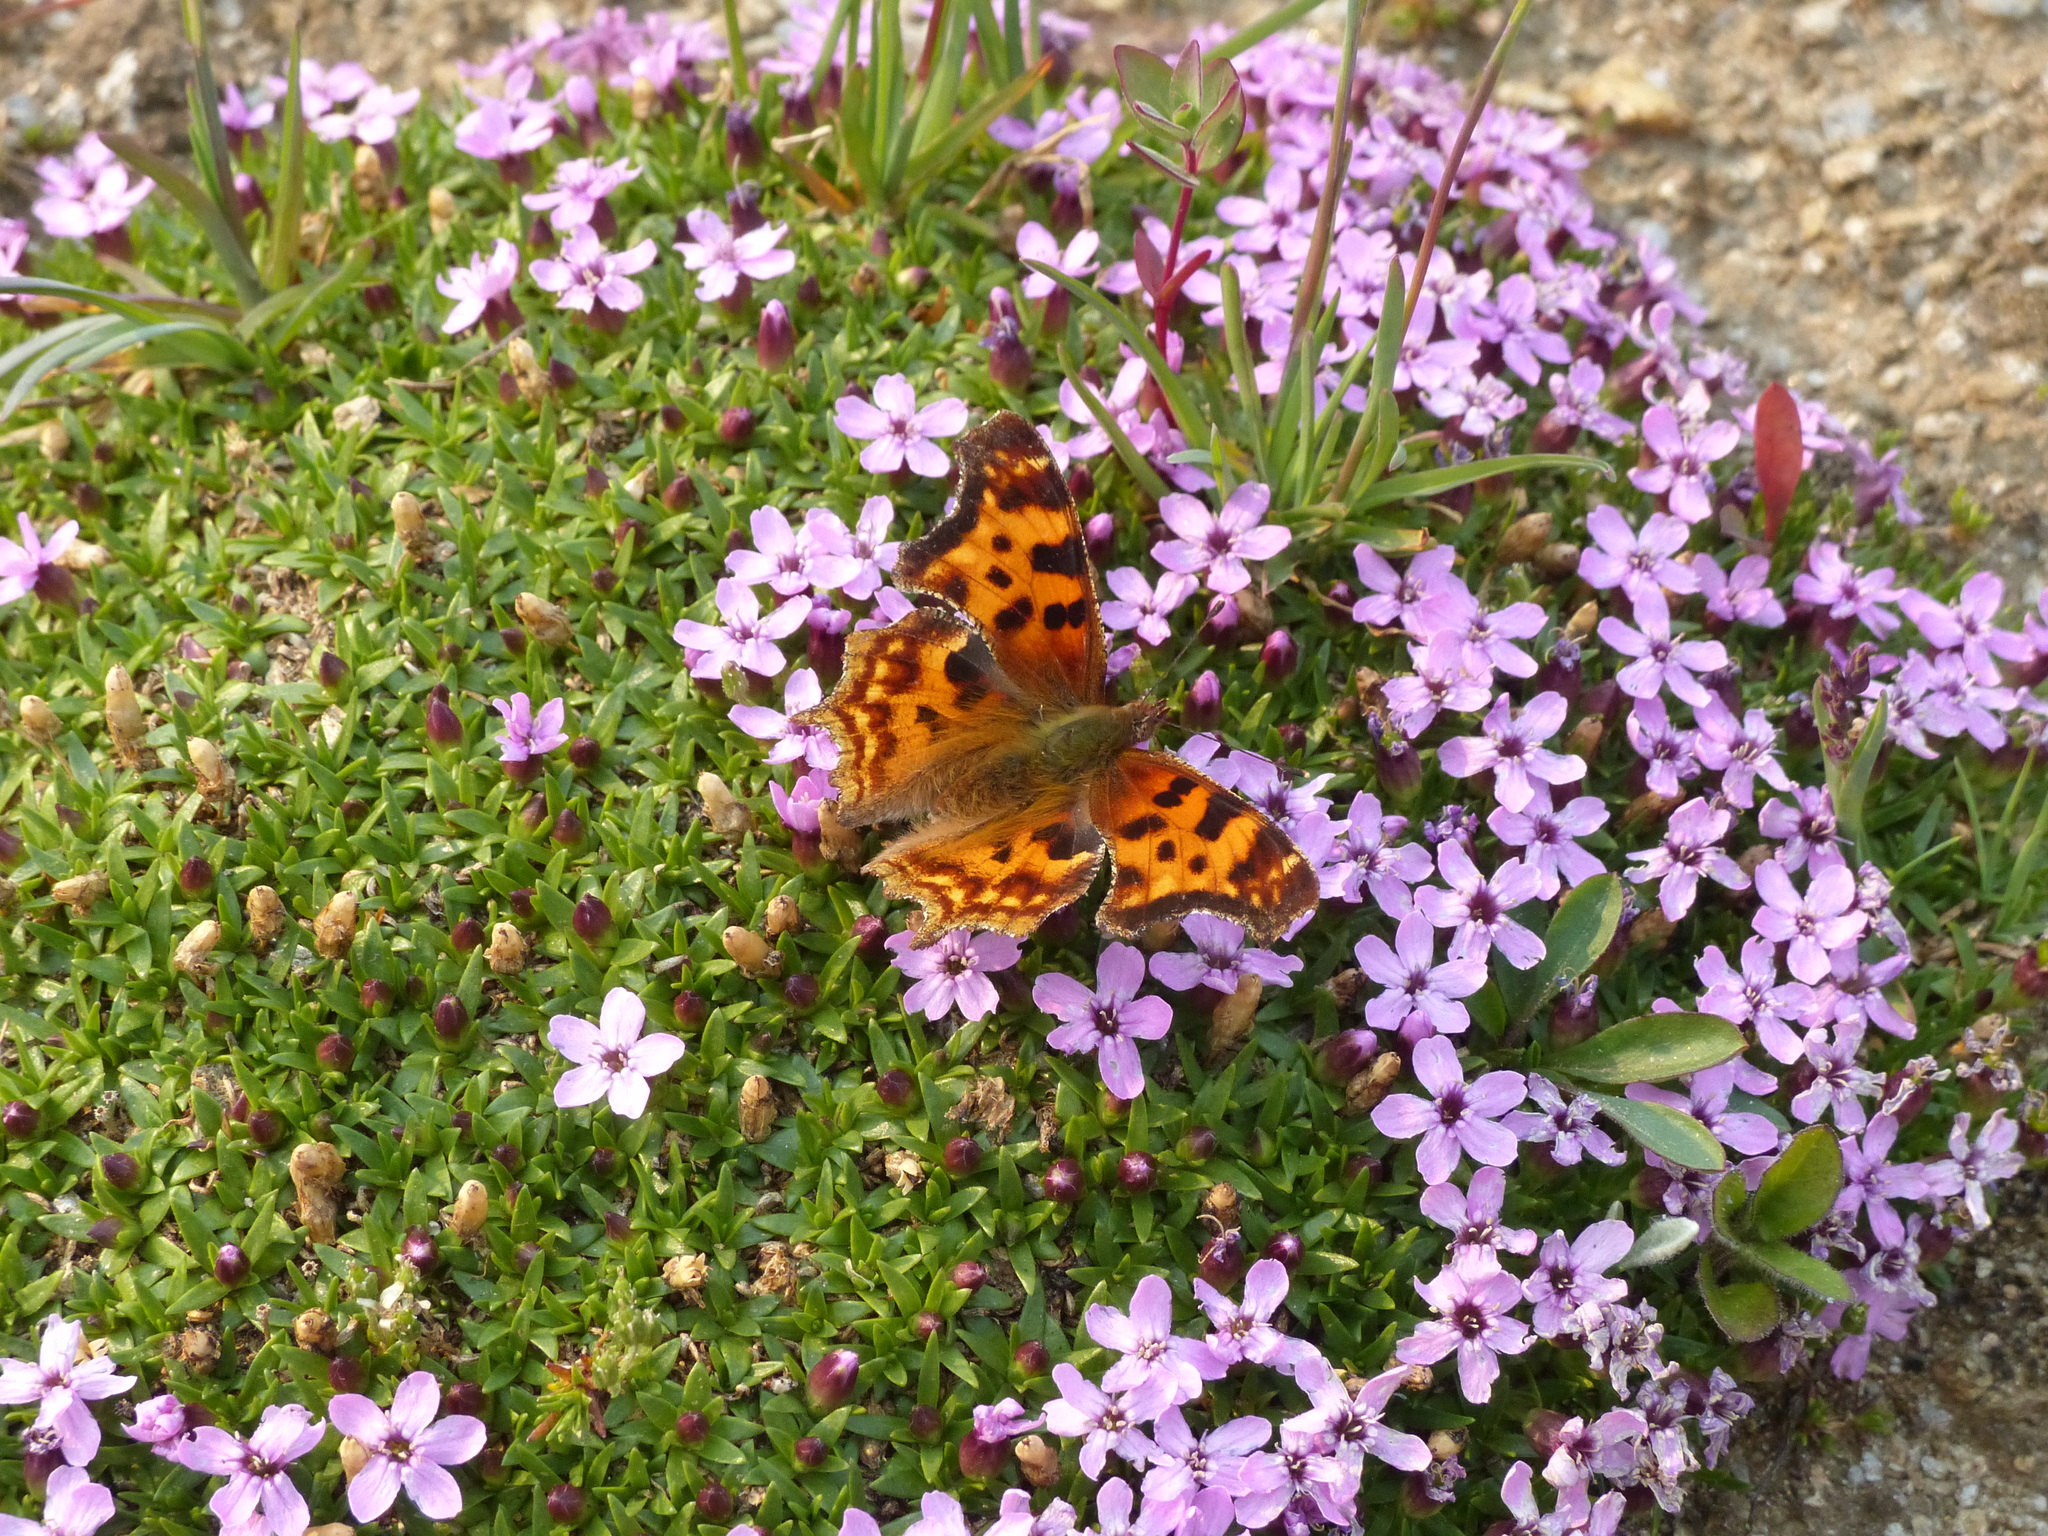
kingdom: Animalia
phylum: Arthropoda
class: Insecta
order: Lepidoptera
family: Nymphalidae
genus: Polygonia
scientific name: Polygonia satyrus
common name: Satyr angle wing
